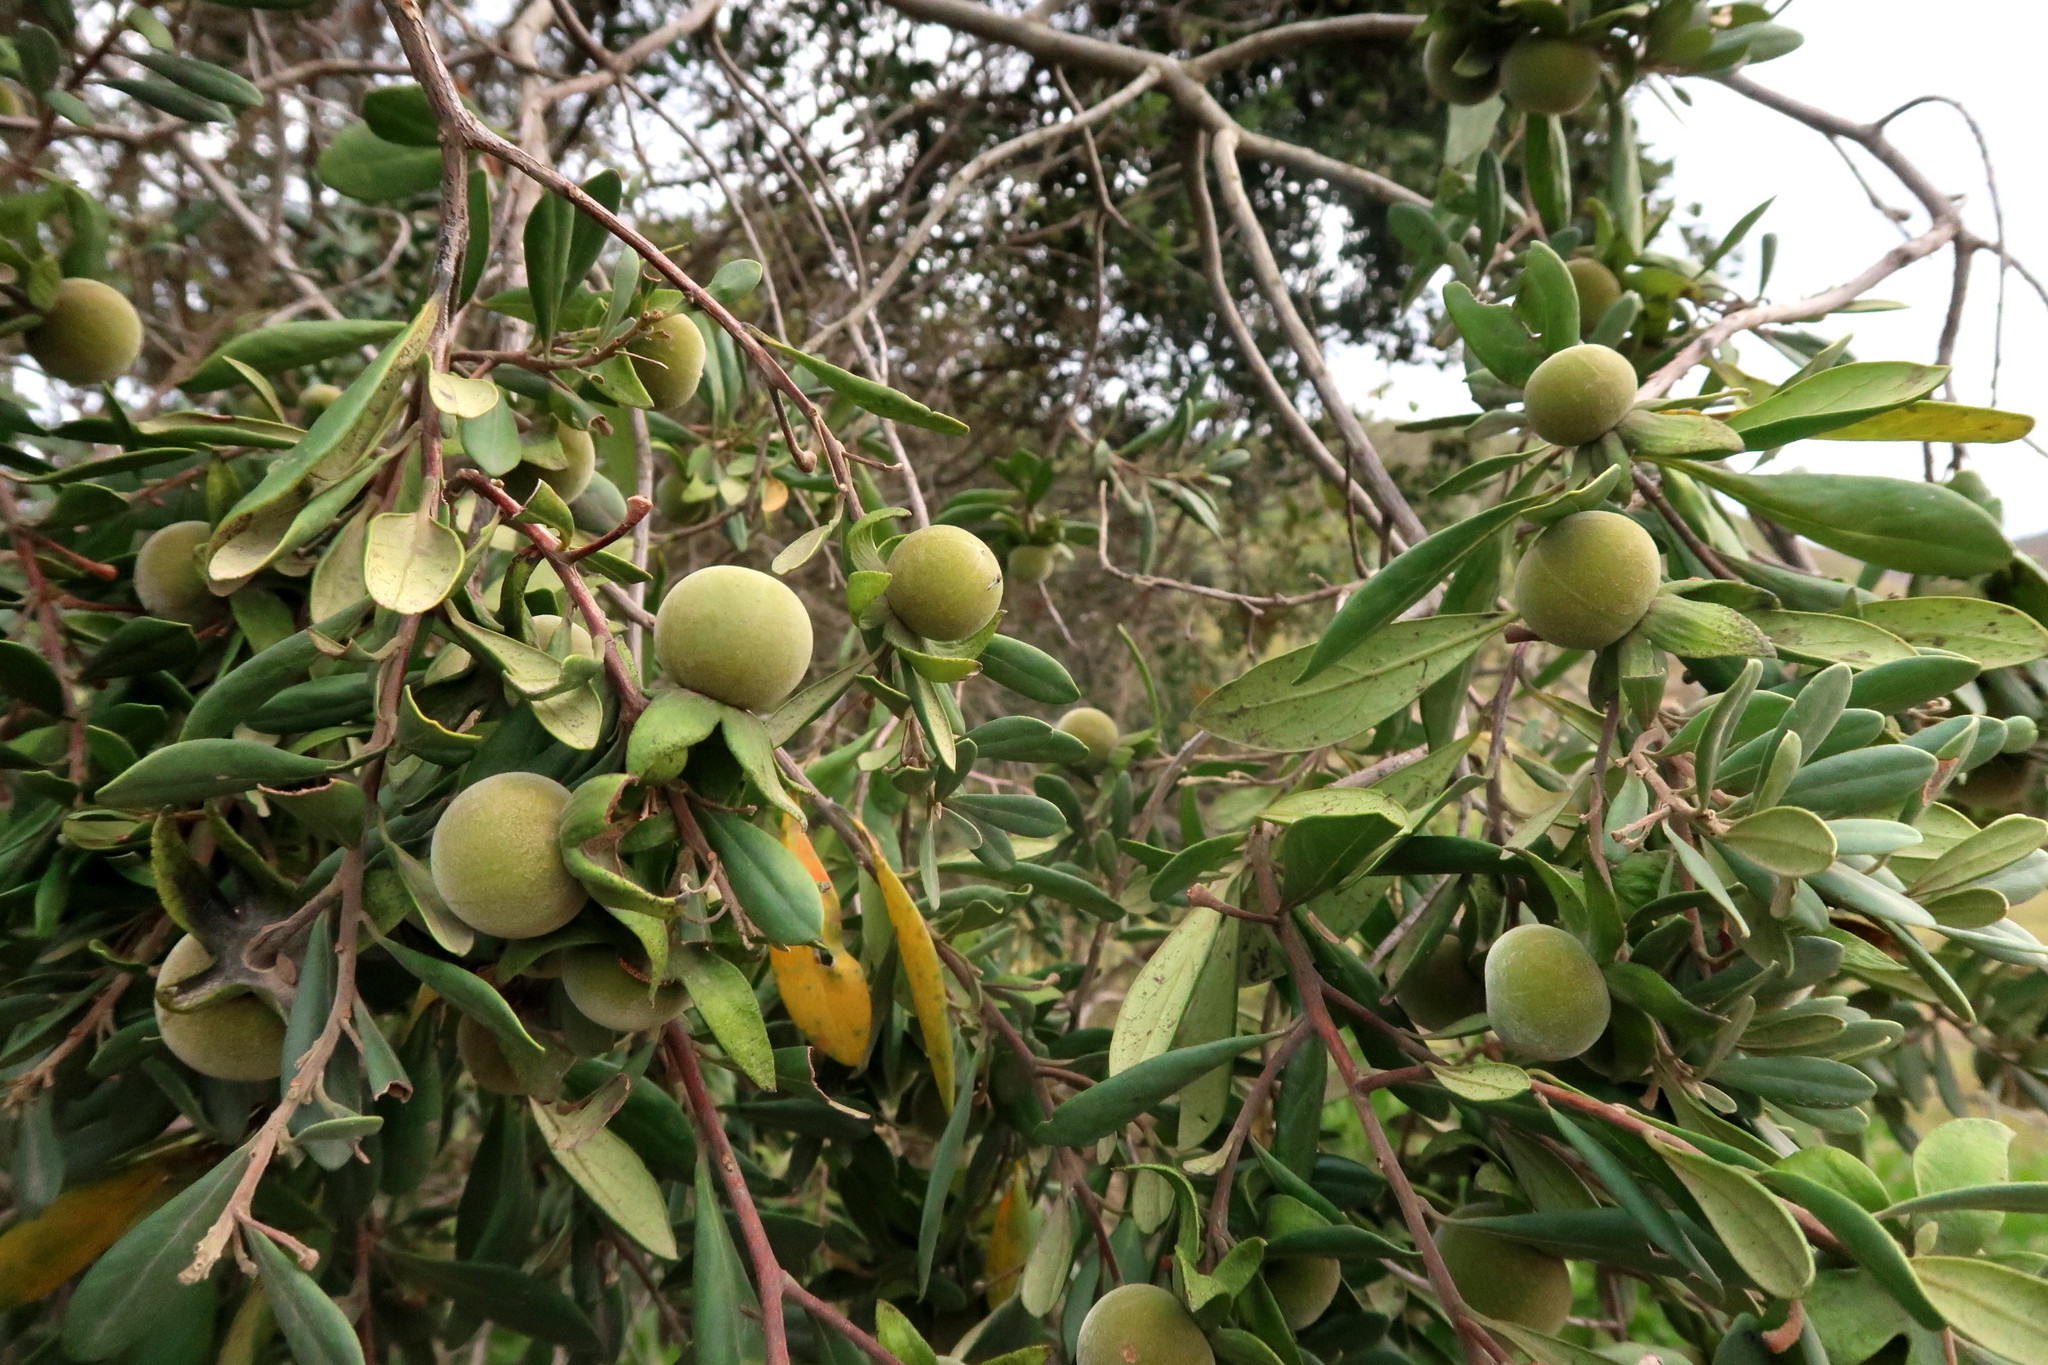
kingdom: Plantae
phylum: Tracheophyta
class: Magnoliopsida
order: Ericales
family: Ebenaceae
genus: Diospyros
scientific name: Diospyros dichrophylla
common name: Common star-apple
